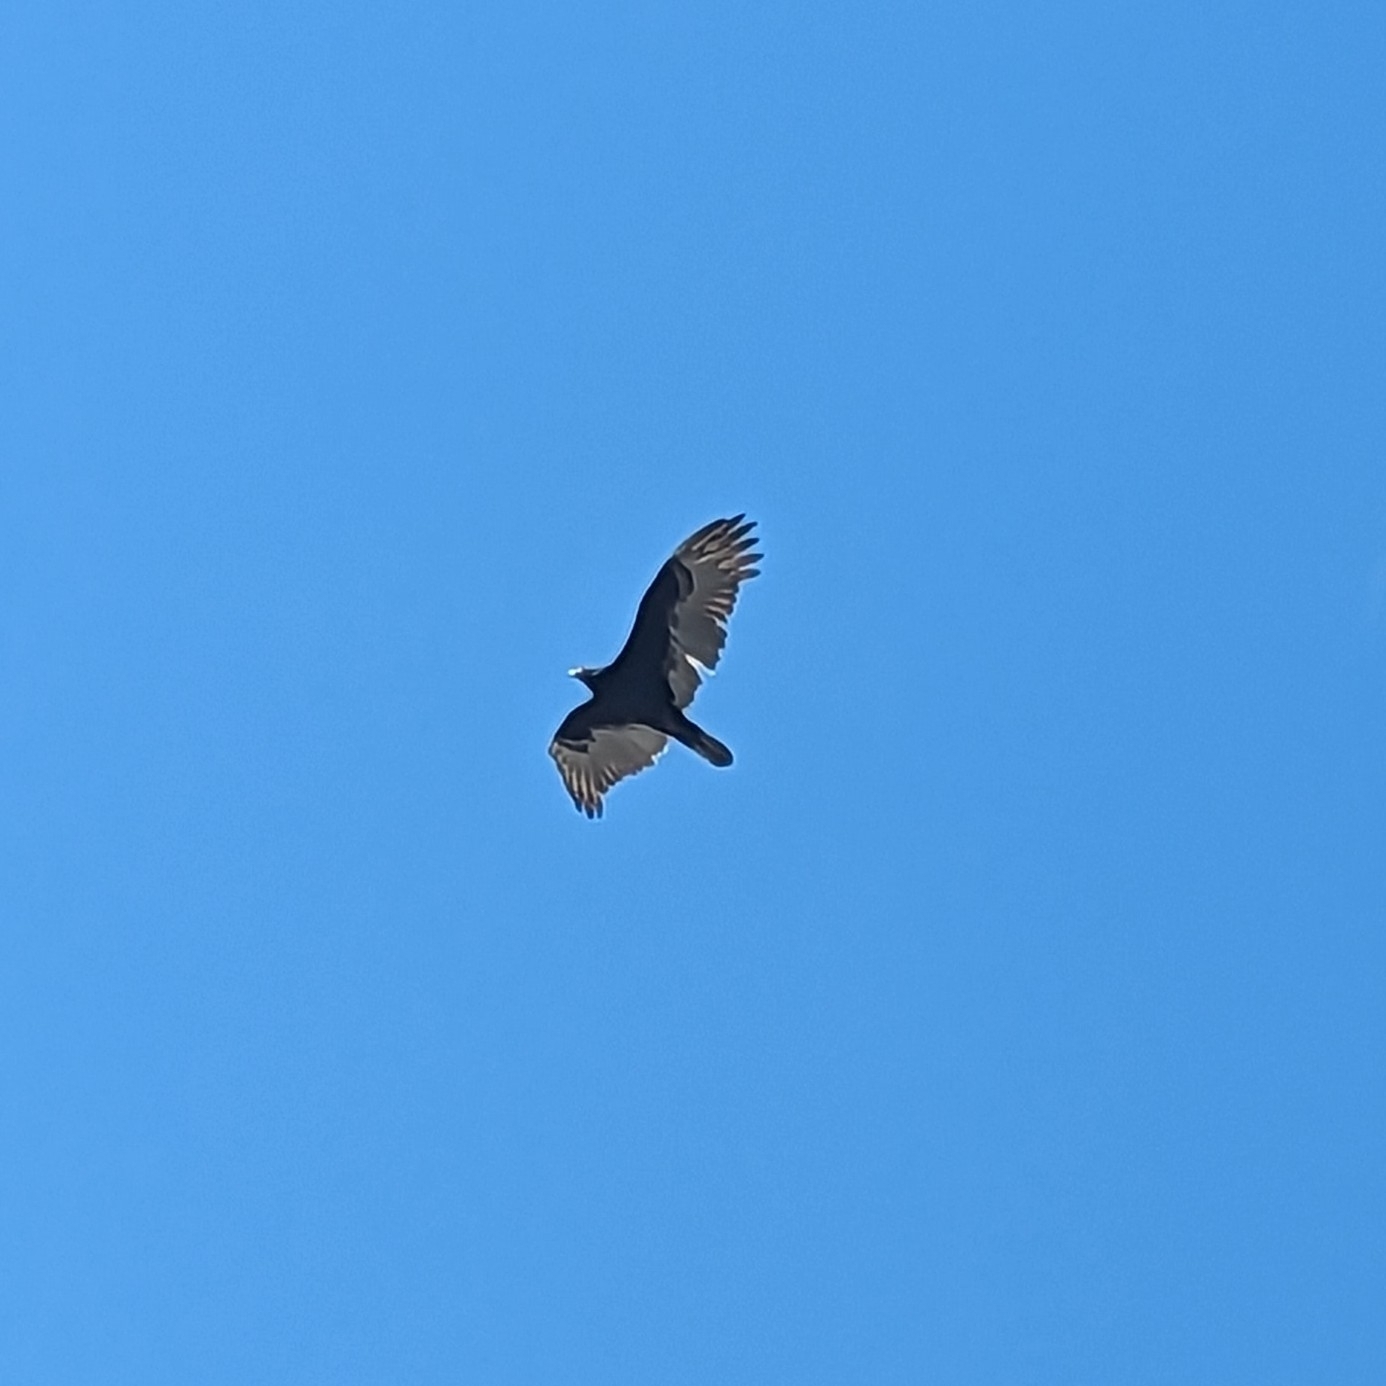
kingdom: Animalia
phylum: Chordata
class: Aves
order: Accipitriformes
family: Cathartidae
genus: Cathartes
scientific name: Cathartes aura
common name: Turkey vulture
